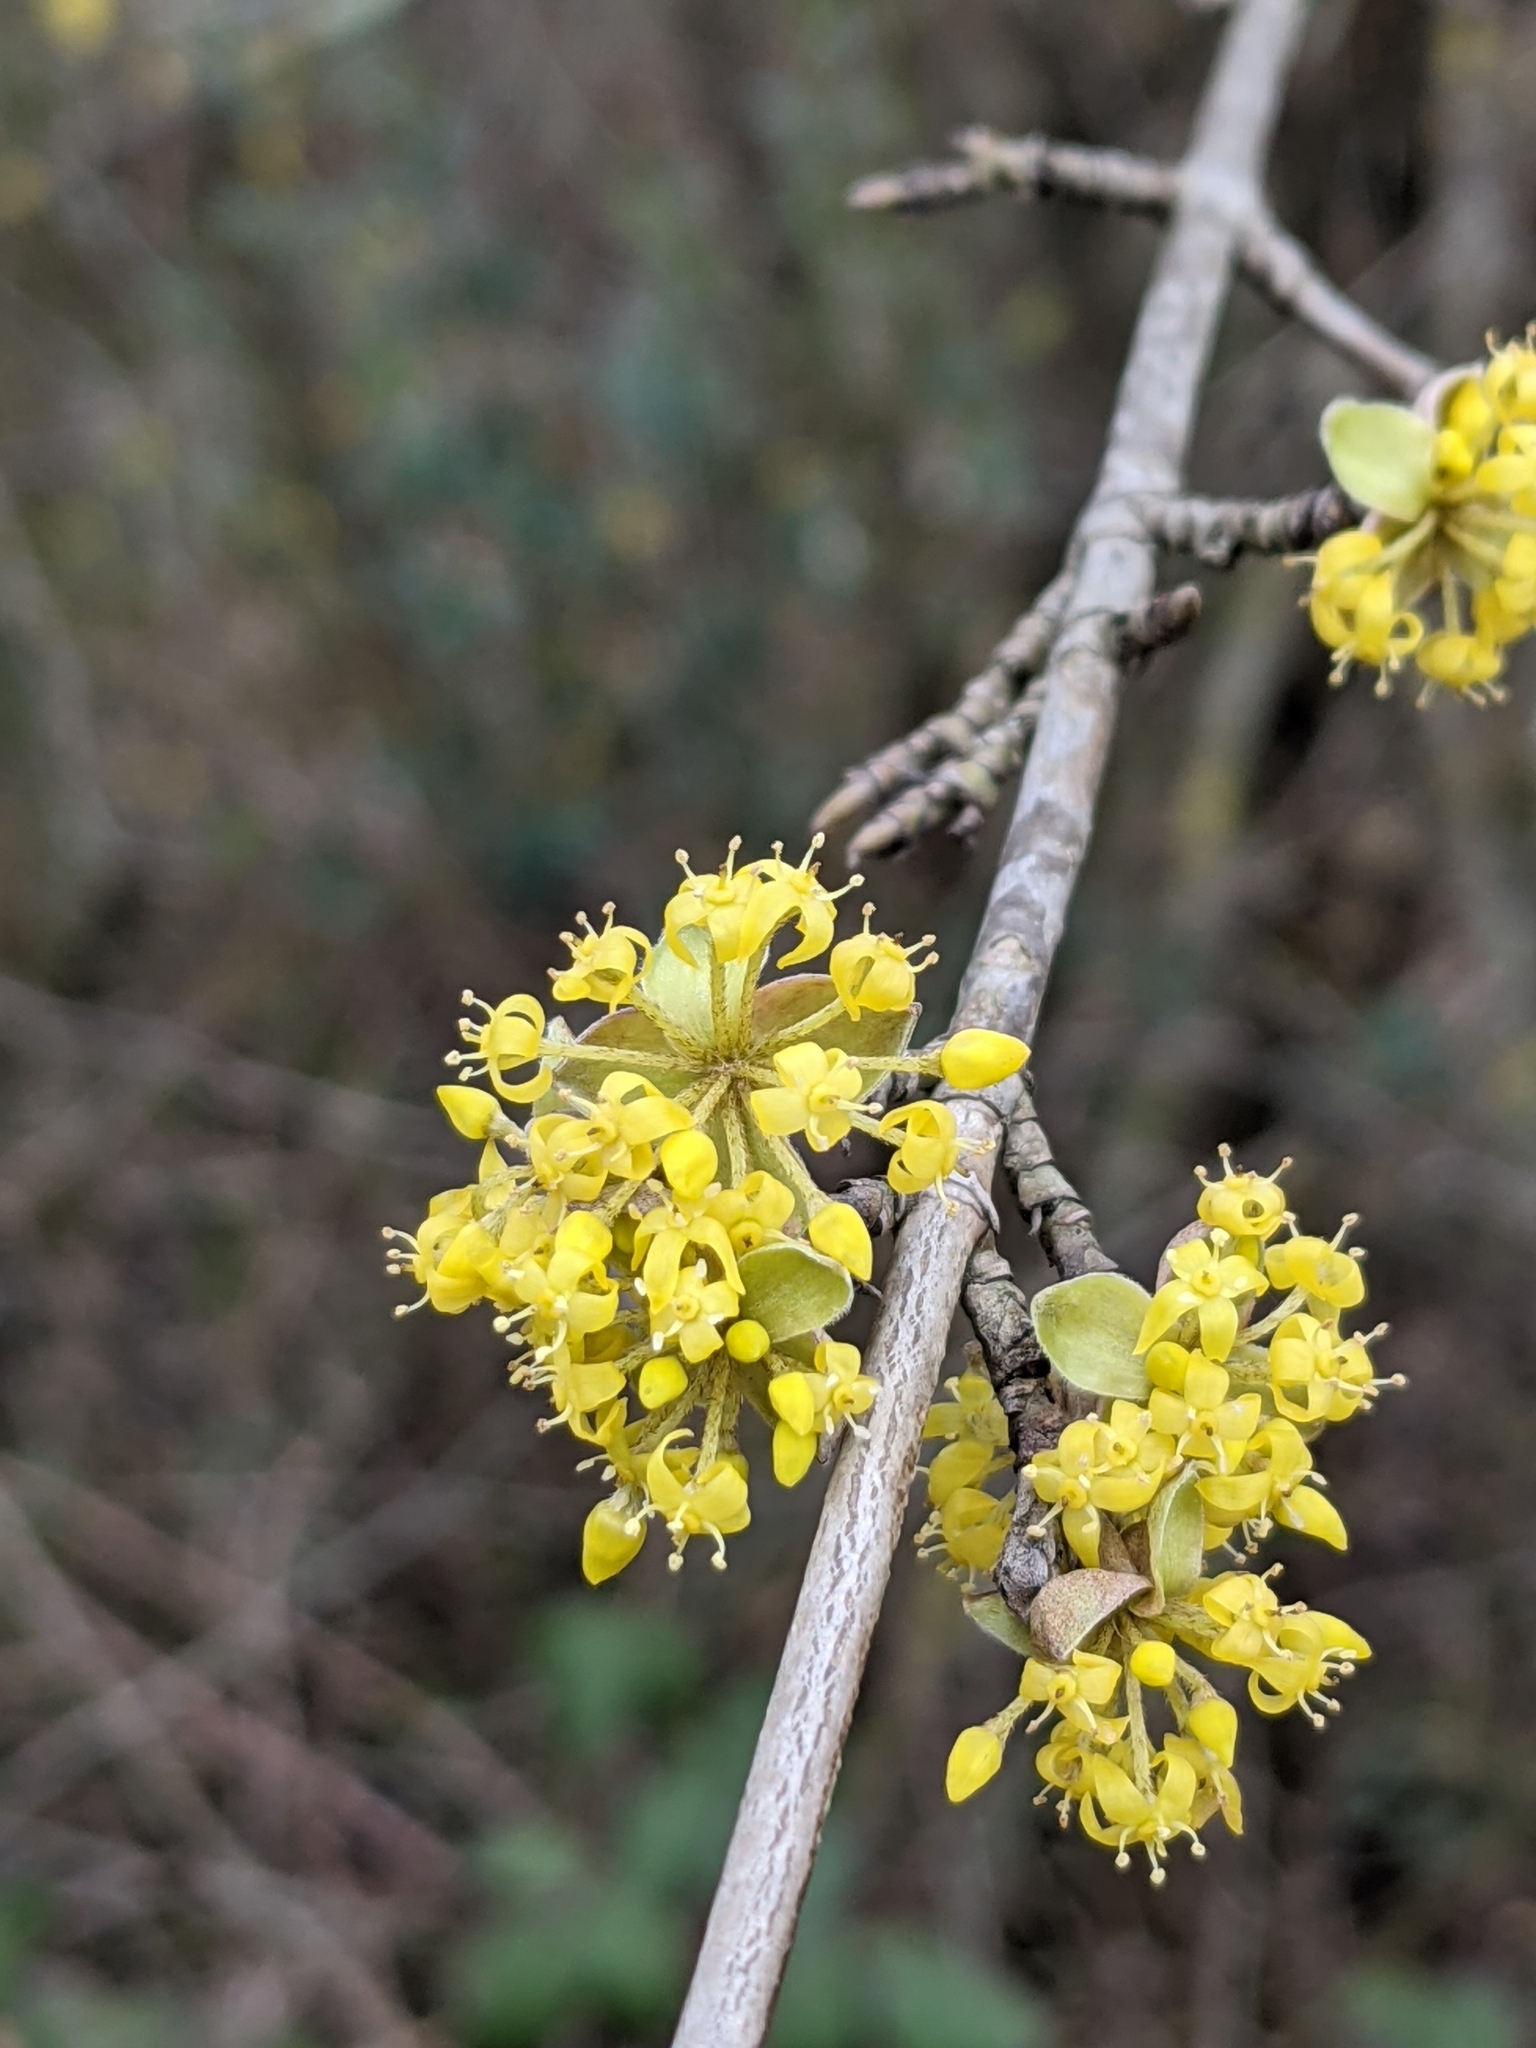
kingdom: Plantae
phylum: Tracheophyta
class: Magnoliopsida
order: Cornales
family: Cornaceae
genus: Cornus
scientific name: Cornus mas
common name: Cornelian-cherry
